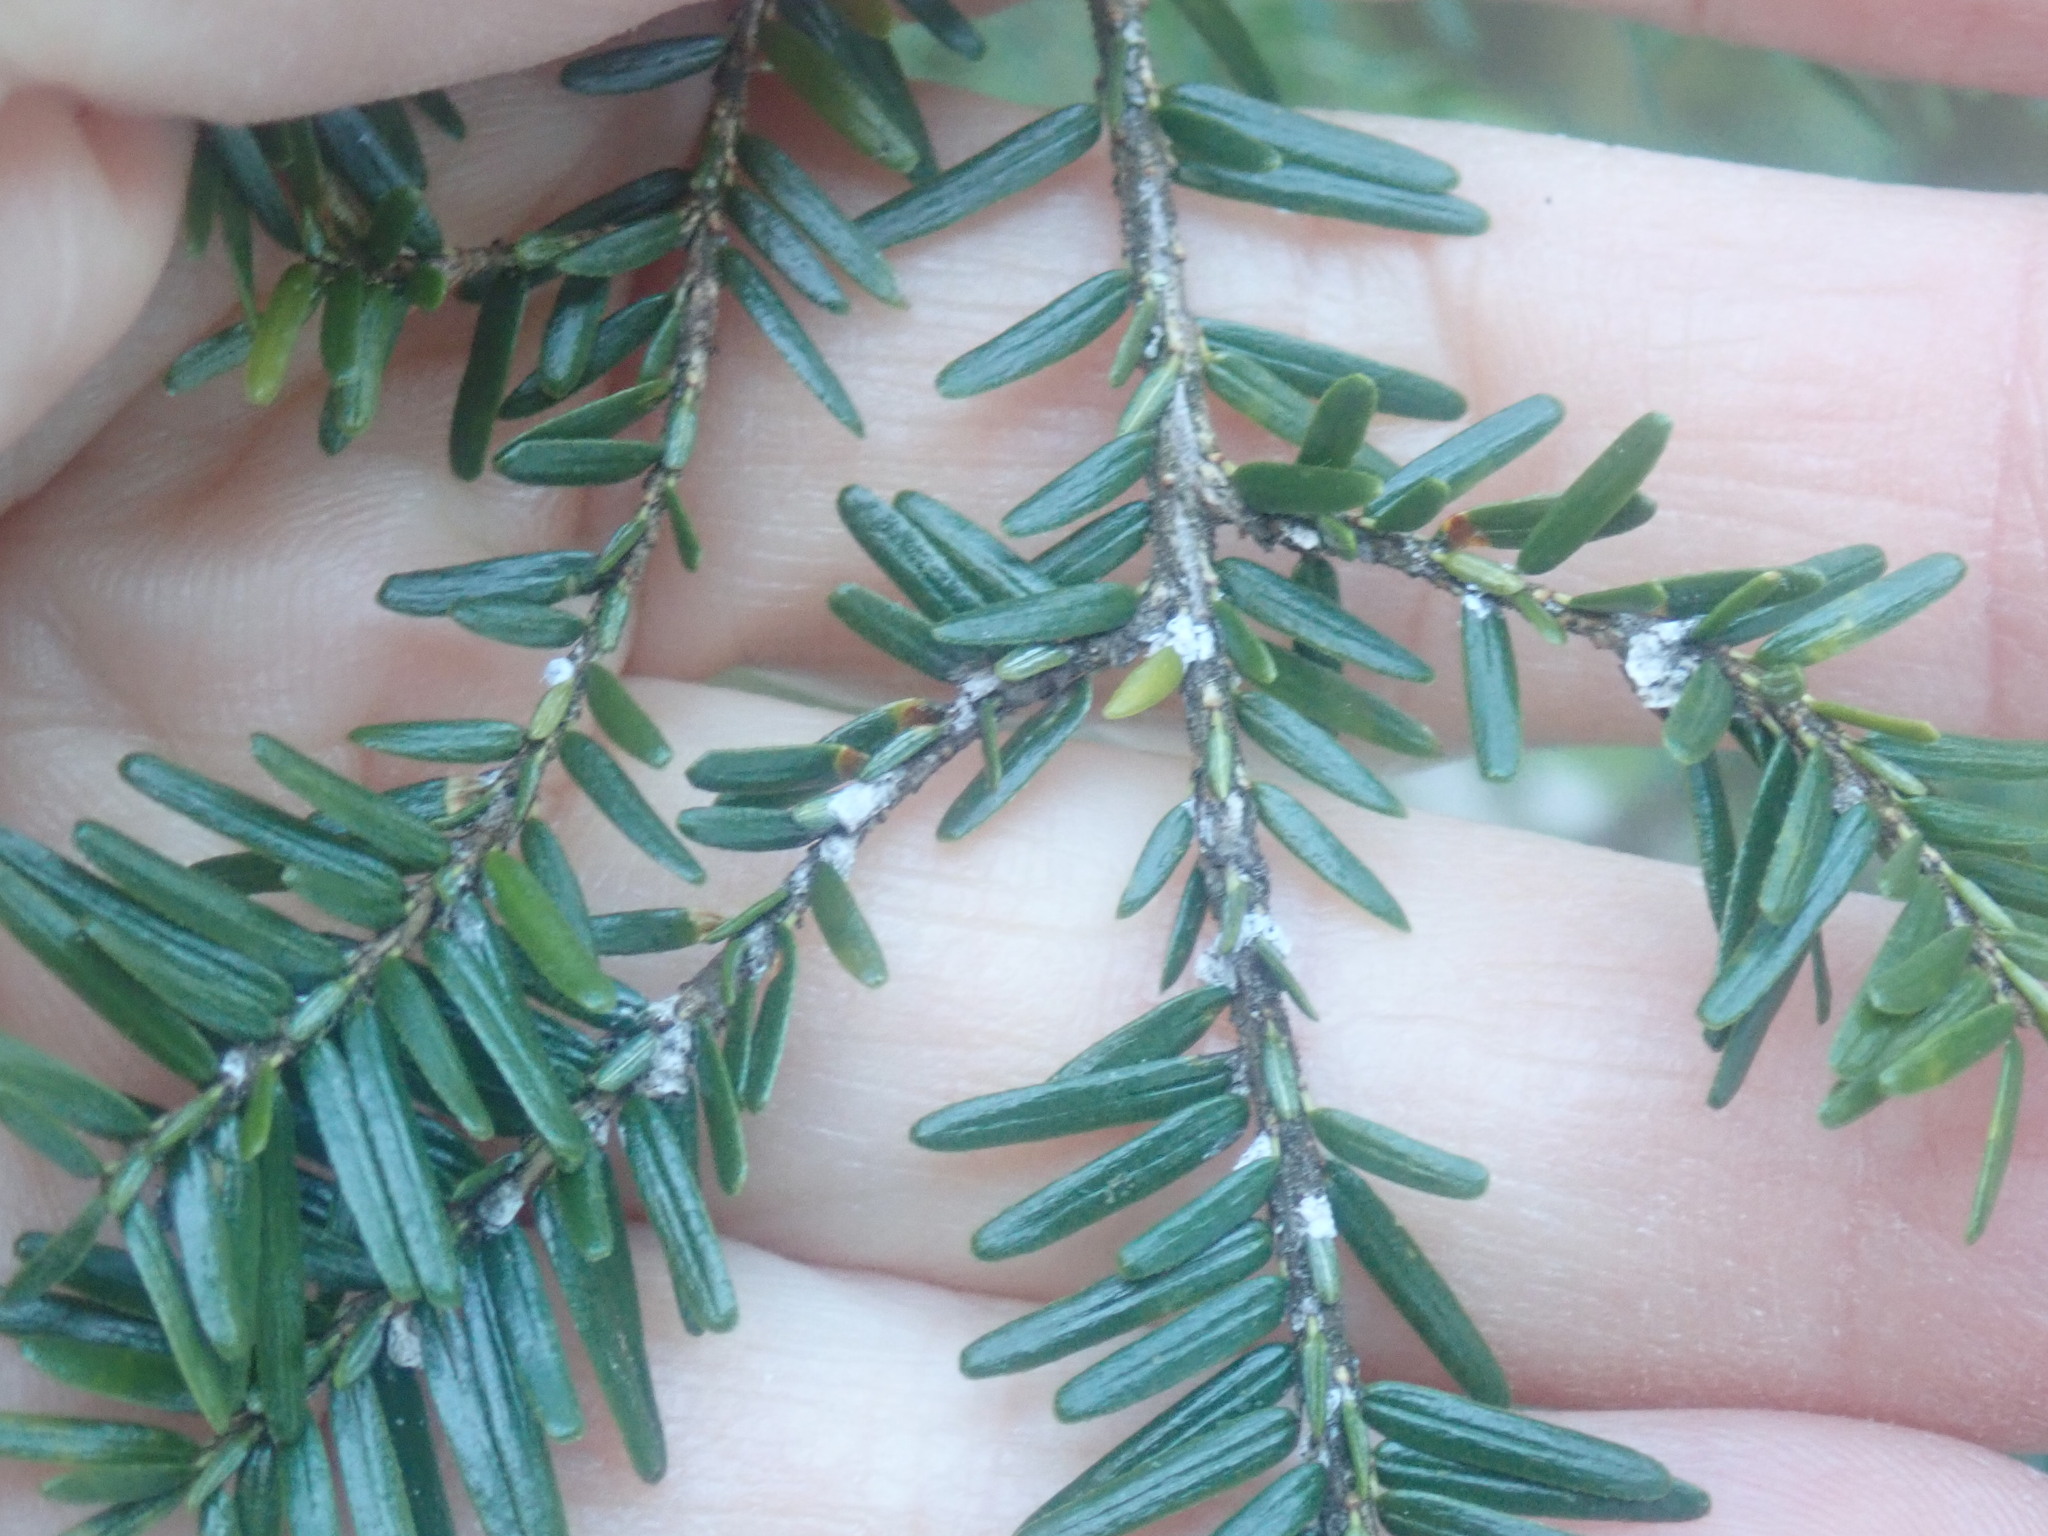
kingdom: Animalia
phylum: Arthropoda
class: Insecta
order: Hemiptera
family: Adelgidae
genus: Adelges
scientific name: Adelges tsugae
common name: Hemlock woolly adelgid
